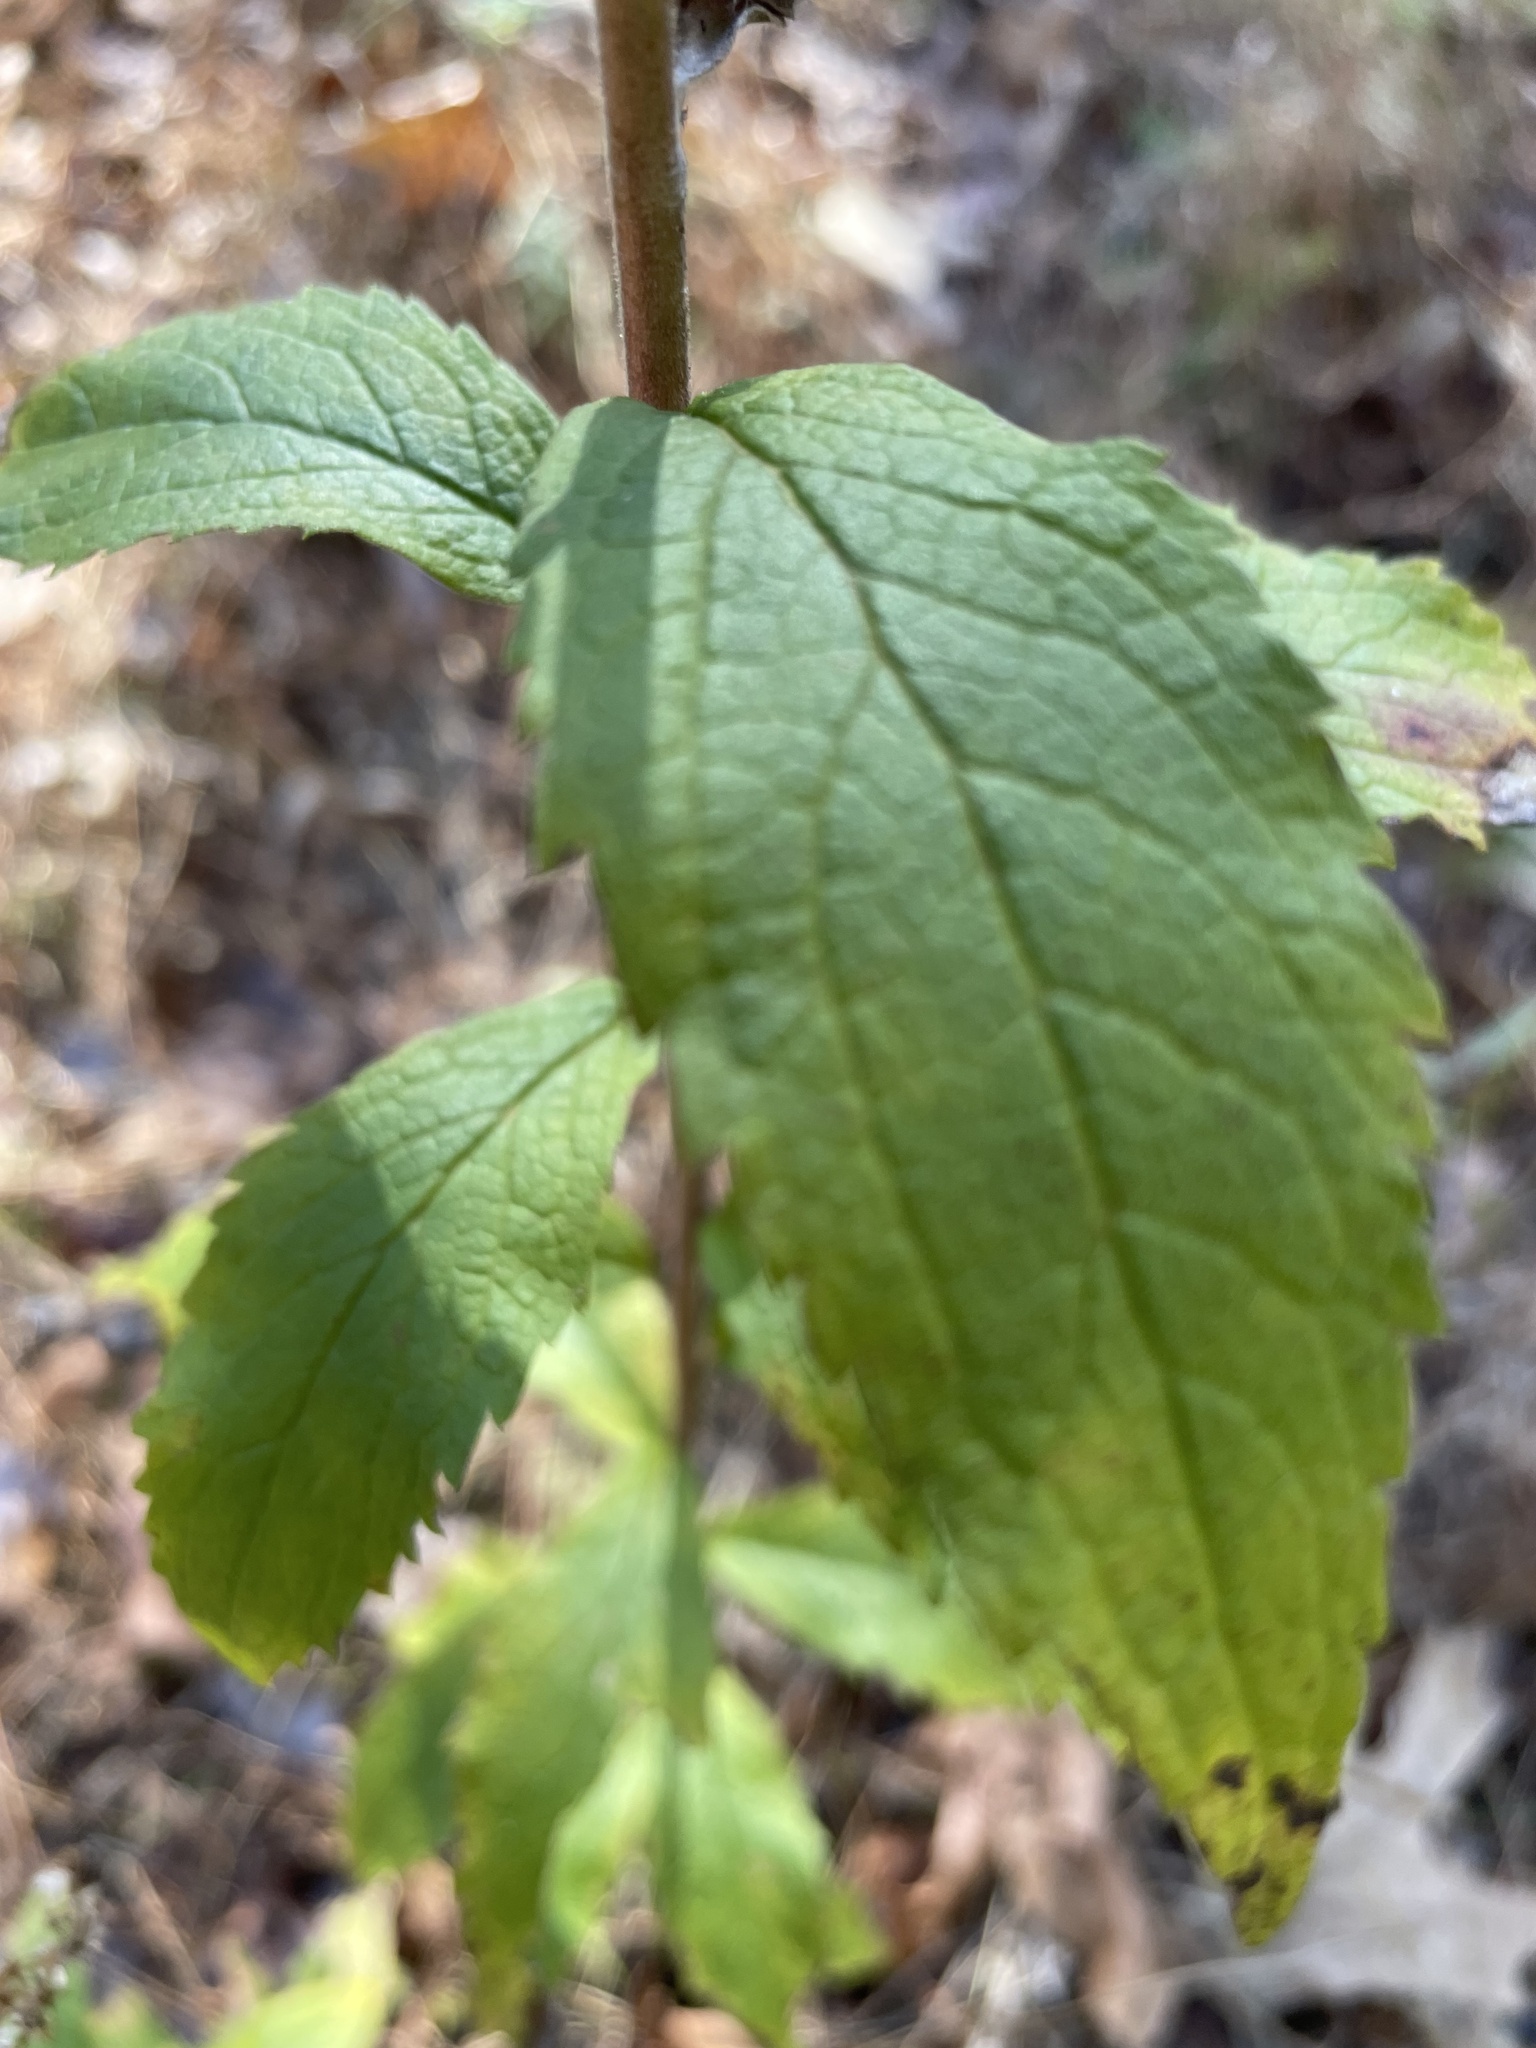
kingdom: Plantae
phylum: Tracheophyta
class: Magnoliopsida
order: Asterales
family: Asteraceae
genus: Solidago
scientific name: Solidago rugosa
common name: Rough-stemmed goldenrod
